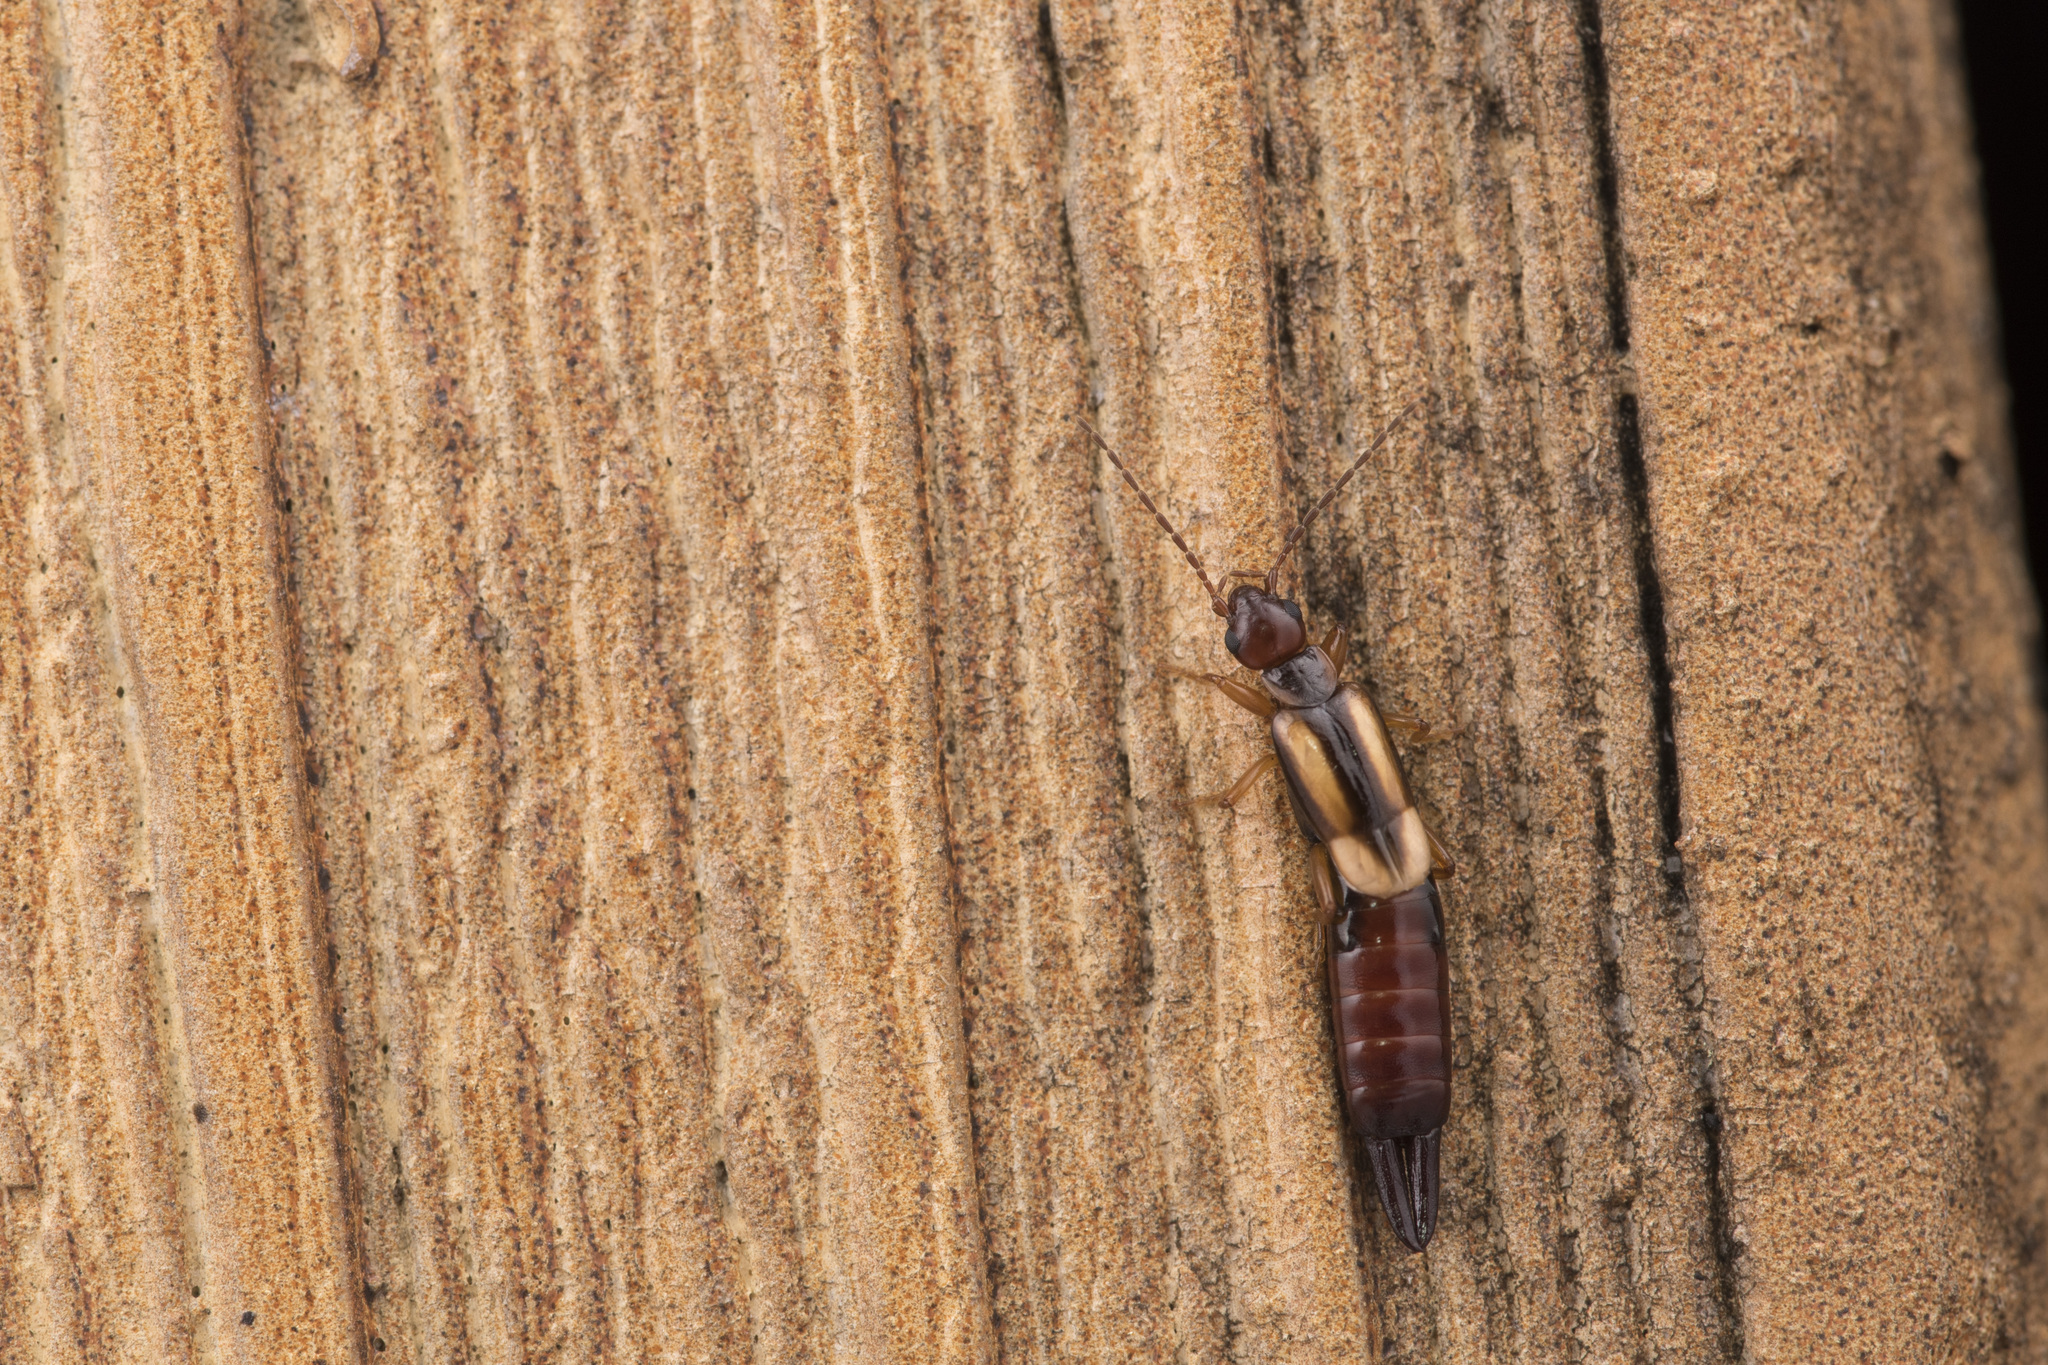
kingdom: Animalia
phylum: Arthropoda
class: Insecta
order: Dermaptera
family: Forficulidae
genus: Forficula
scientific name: Forficula greeni
